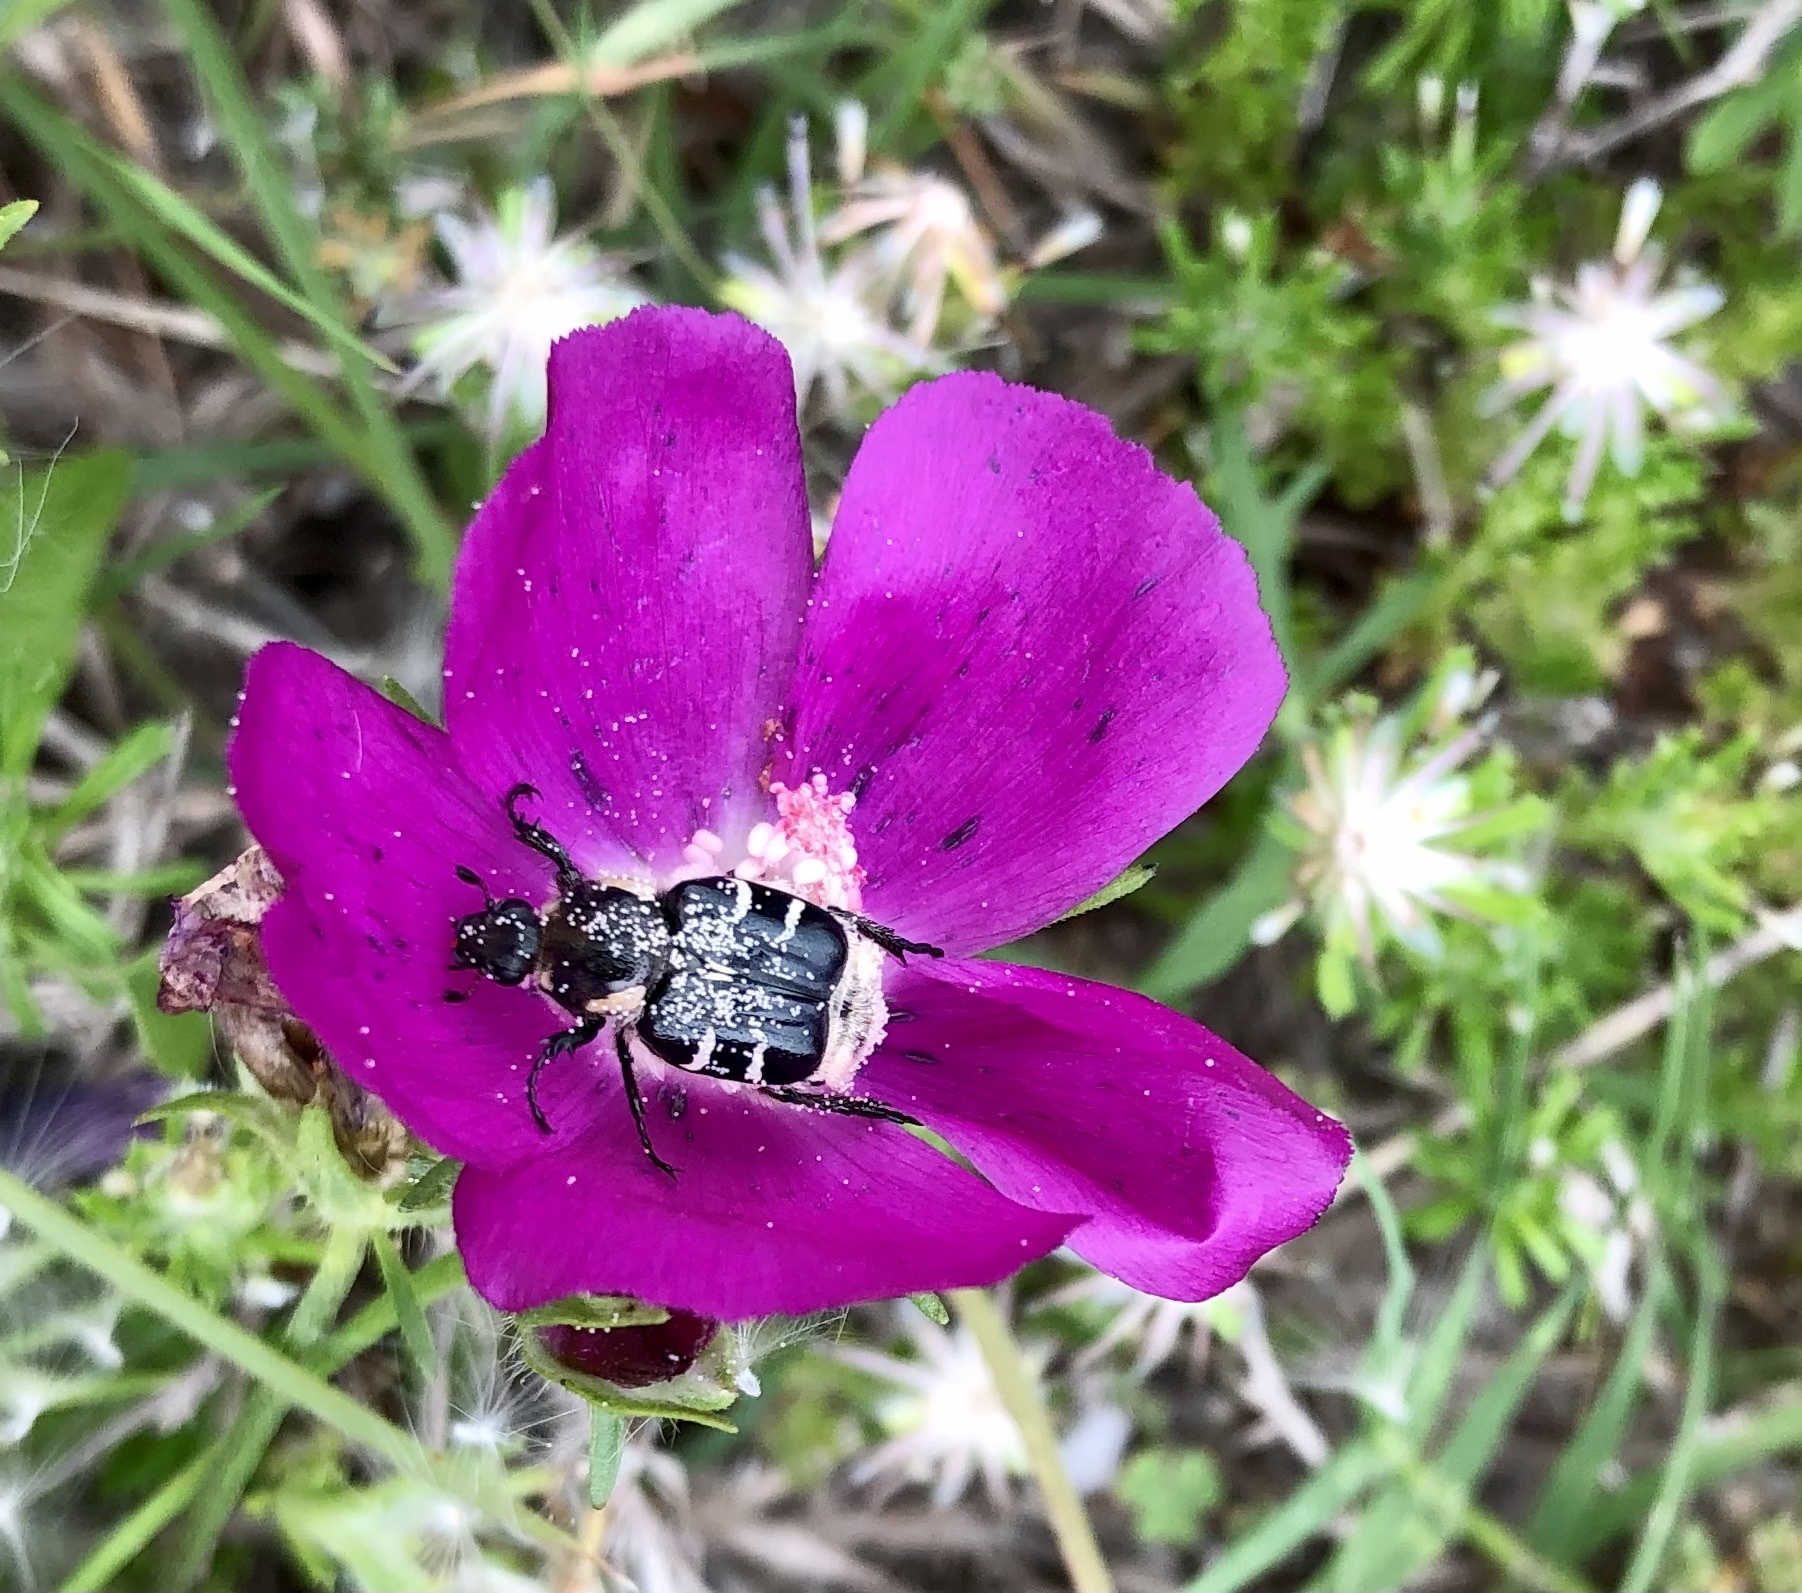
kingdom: Animalia
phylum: Arthropoda
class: Insecta
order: Coleoptera
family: Scarabaeidae
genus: Trichiotinus
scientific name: Trichiotinus texanus
